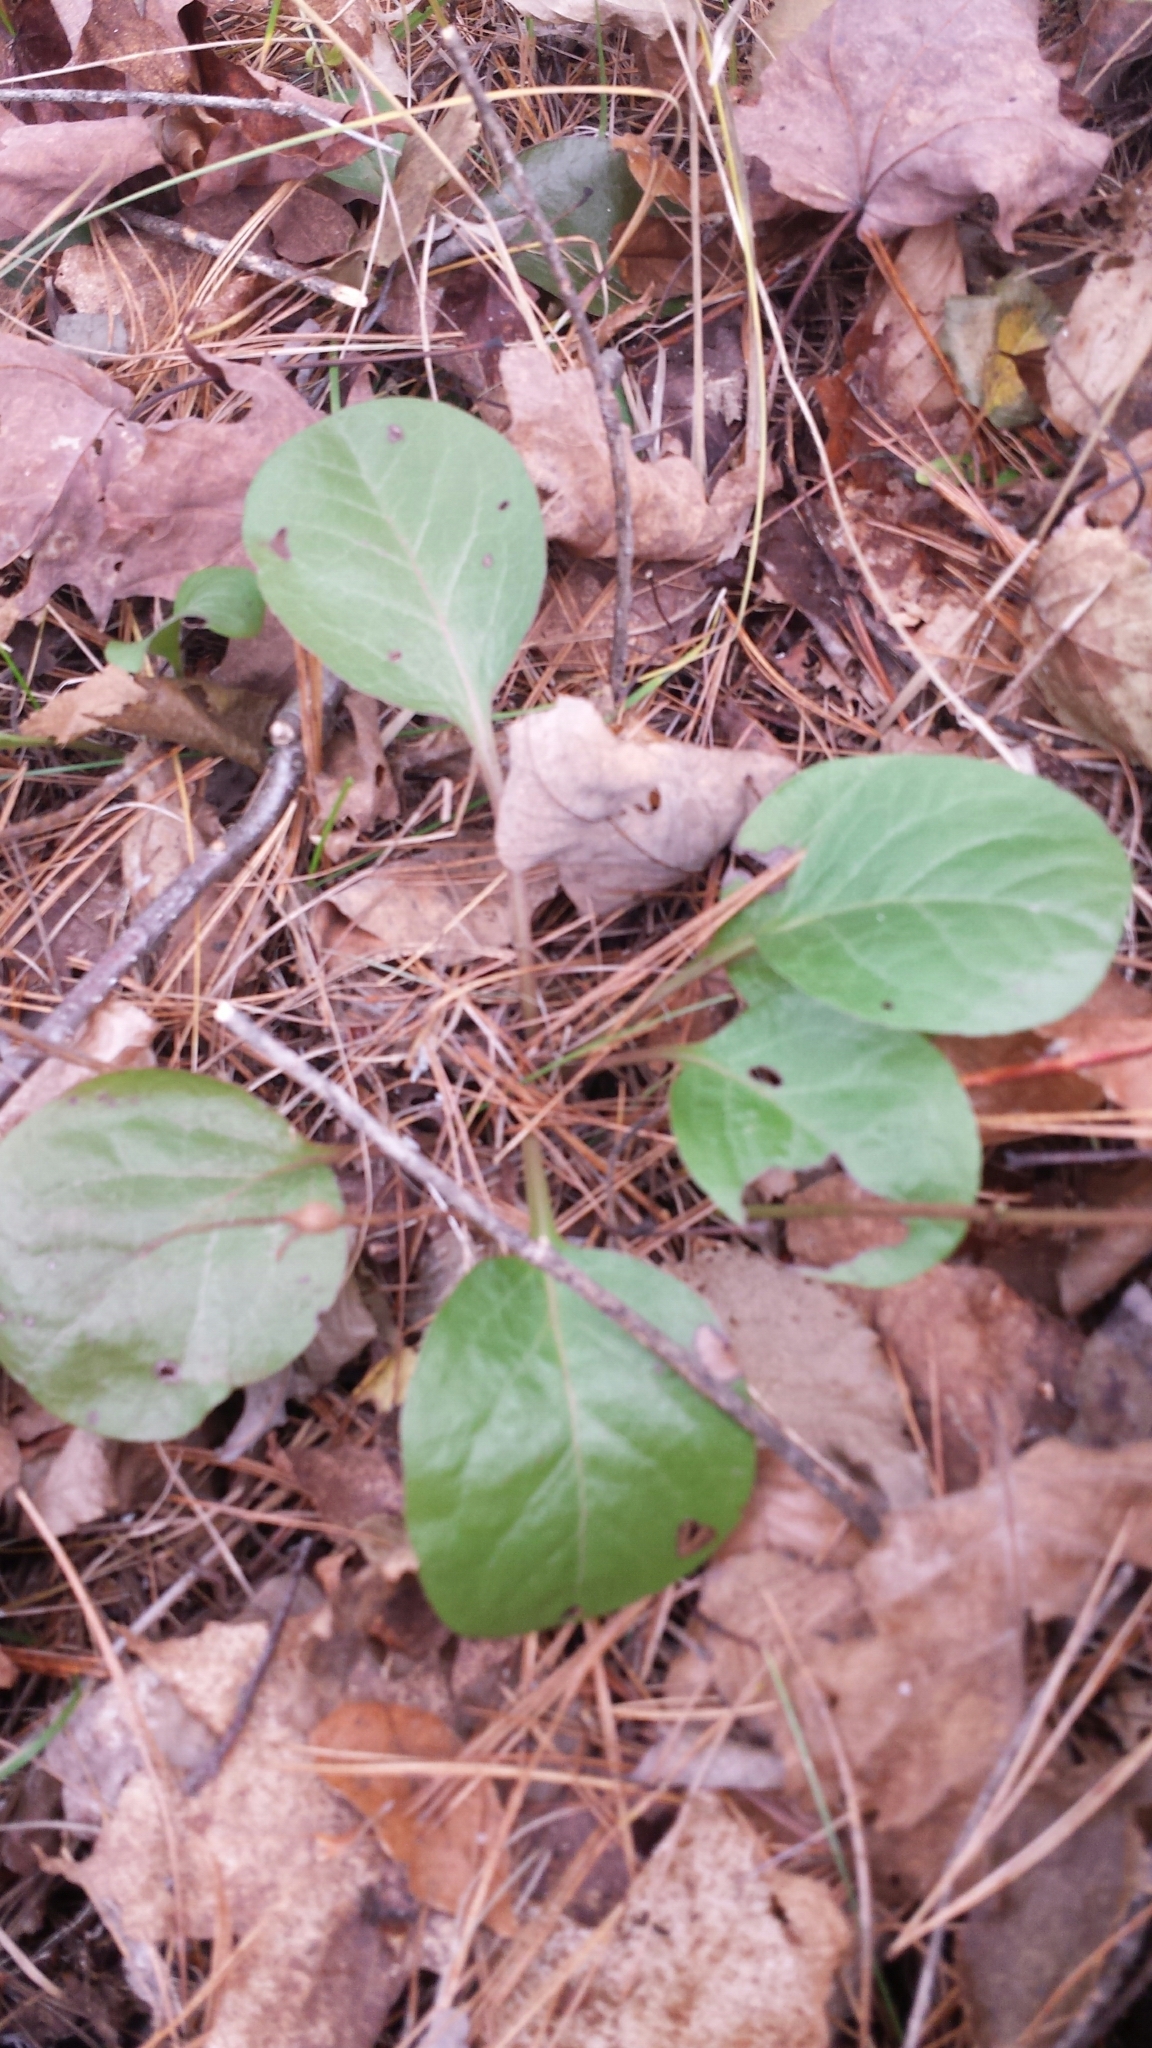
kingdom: Plantae
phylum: Tracheophyta
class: Magnoliopsida
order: Ericales
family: Ericaceae
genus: Pyrola
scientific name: Pyrola elliptica
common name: Shinleaf
